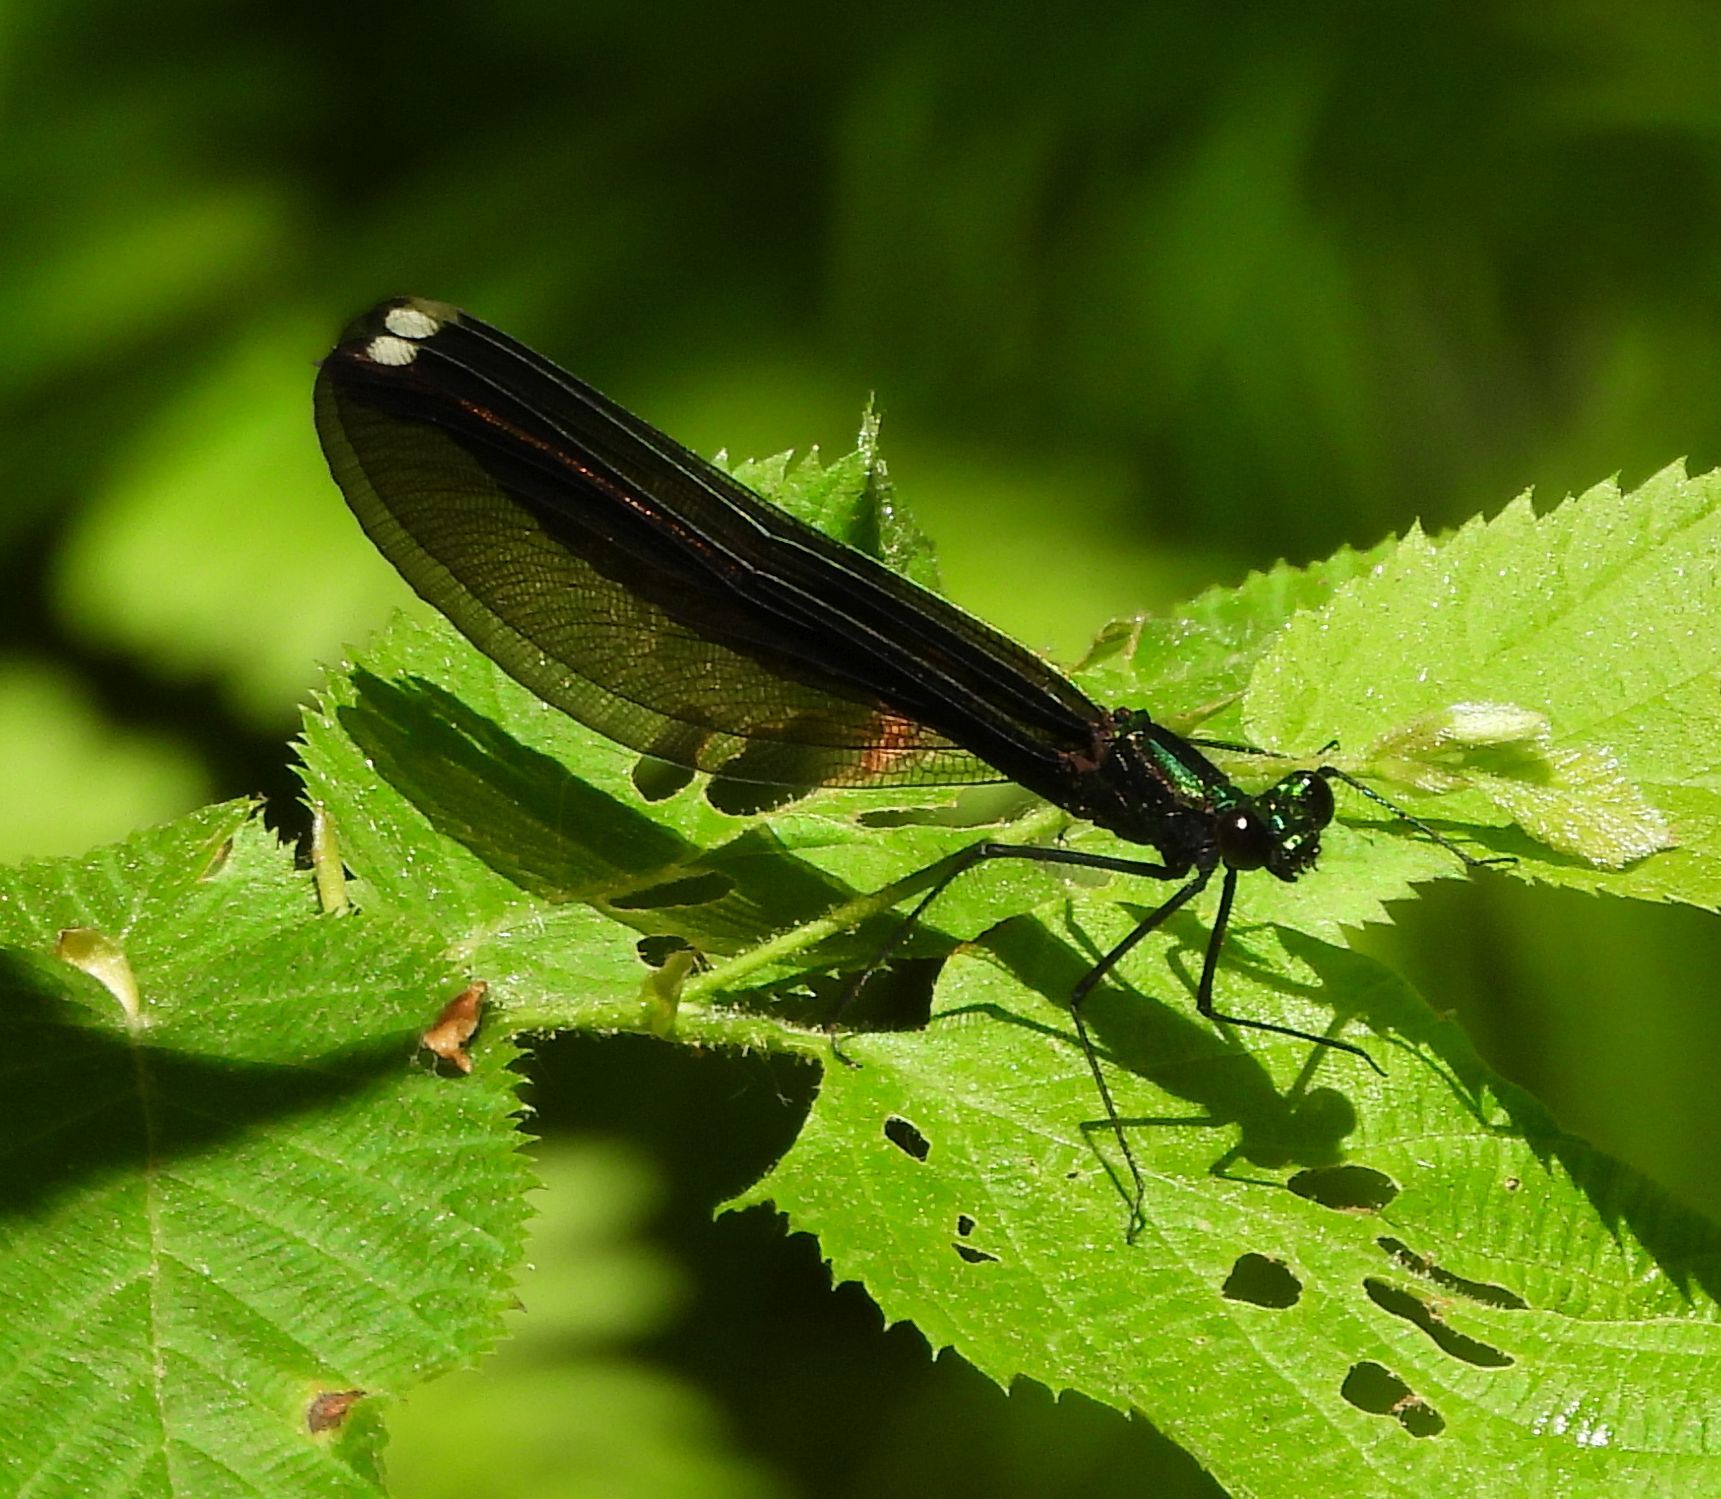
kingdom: Animalia
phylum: Arthropoda
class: Insecta
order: Odonata
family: Calopterygidae
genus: Calopteryx
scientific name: Calopteryx maculata
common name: Ebony jewelwing
